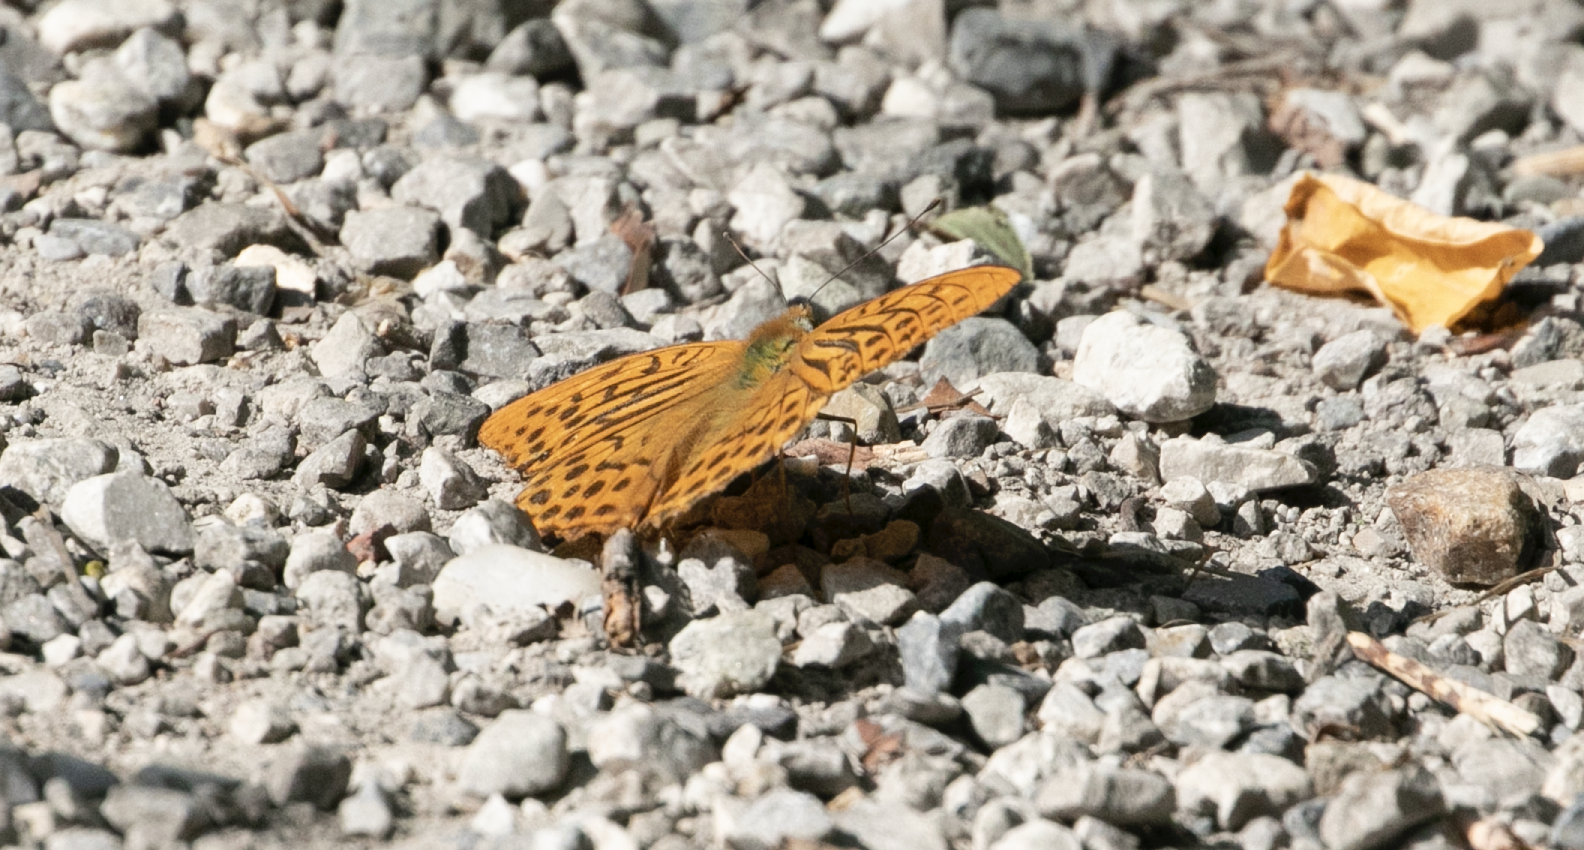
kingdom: Animalia
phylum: Arthropoda
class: Insecta
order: Lepidoptera
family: Nymphalidae
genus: Argynnis
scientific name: Argynnis paphia
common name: Silver-washed fritillary
